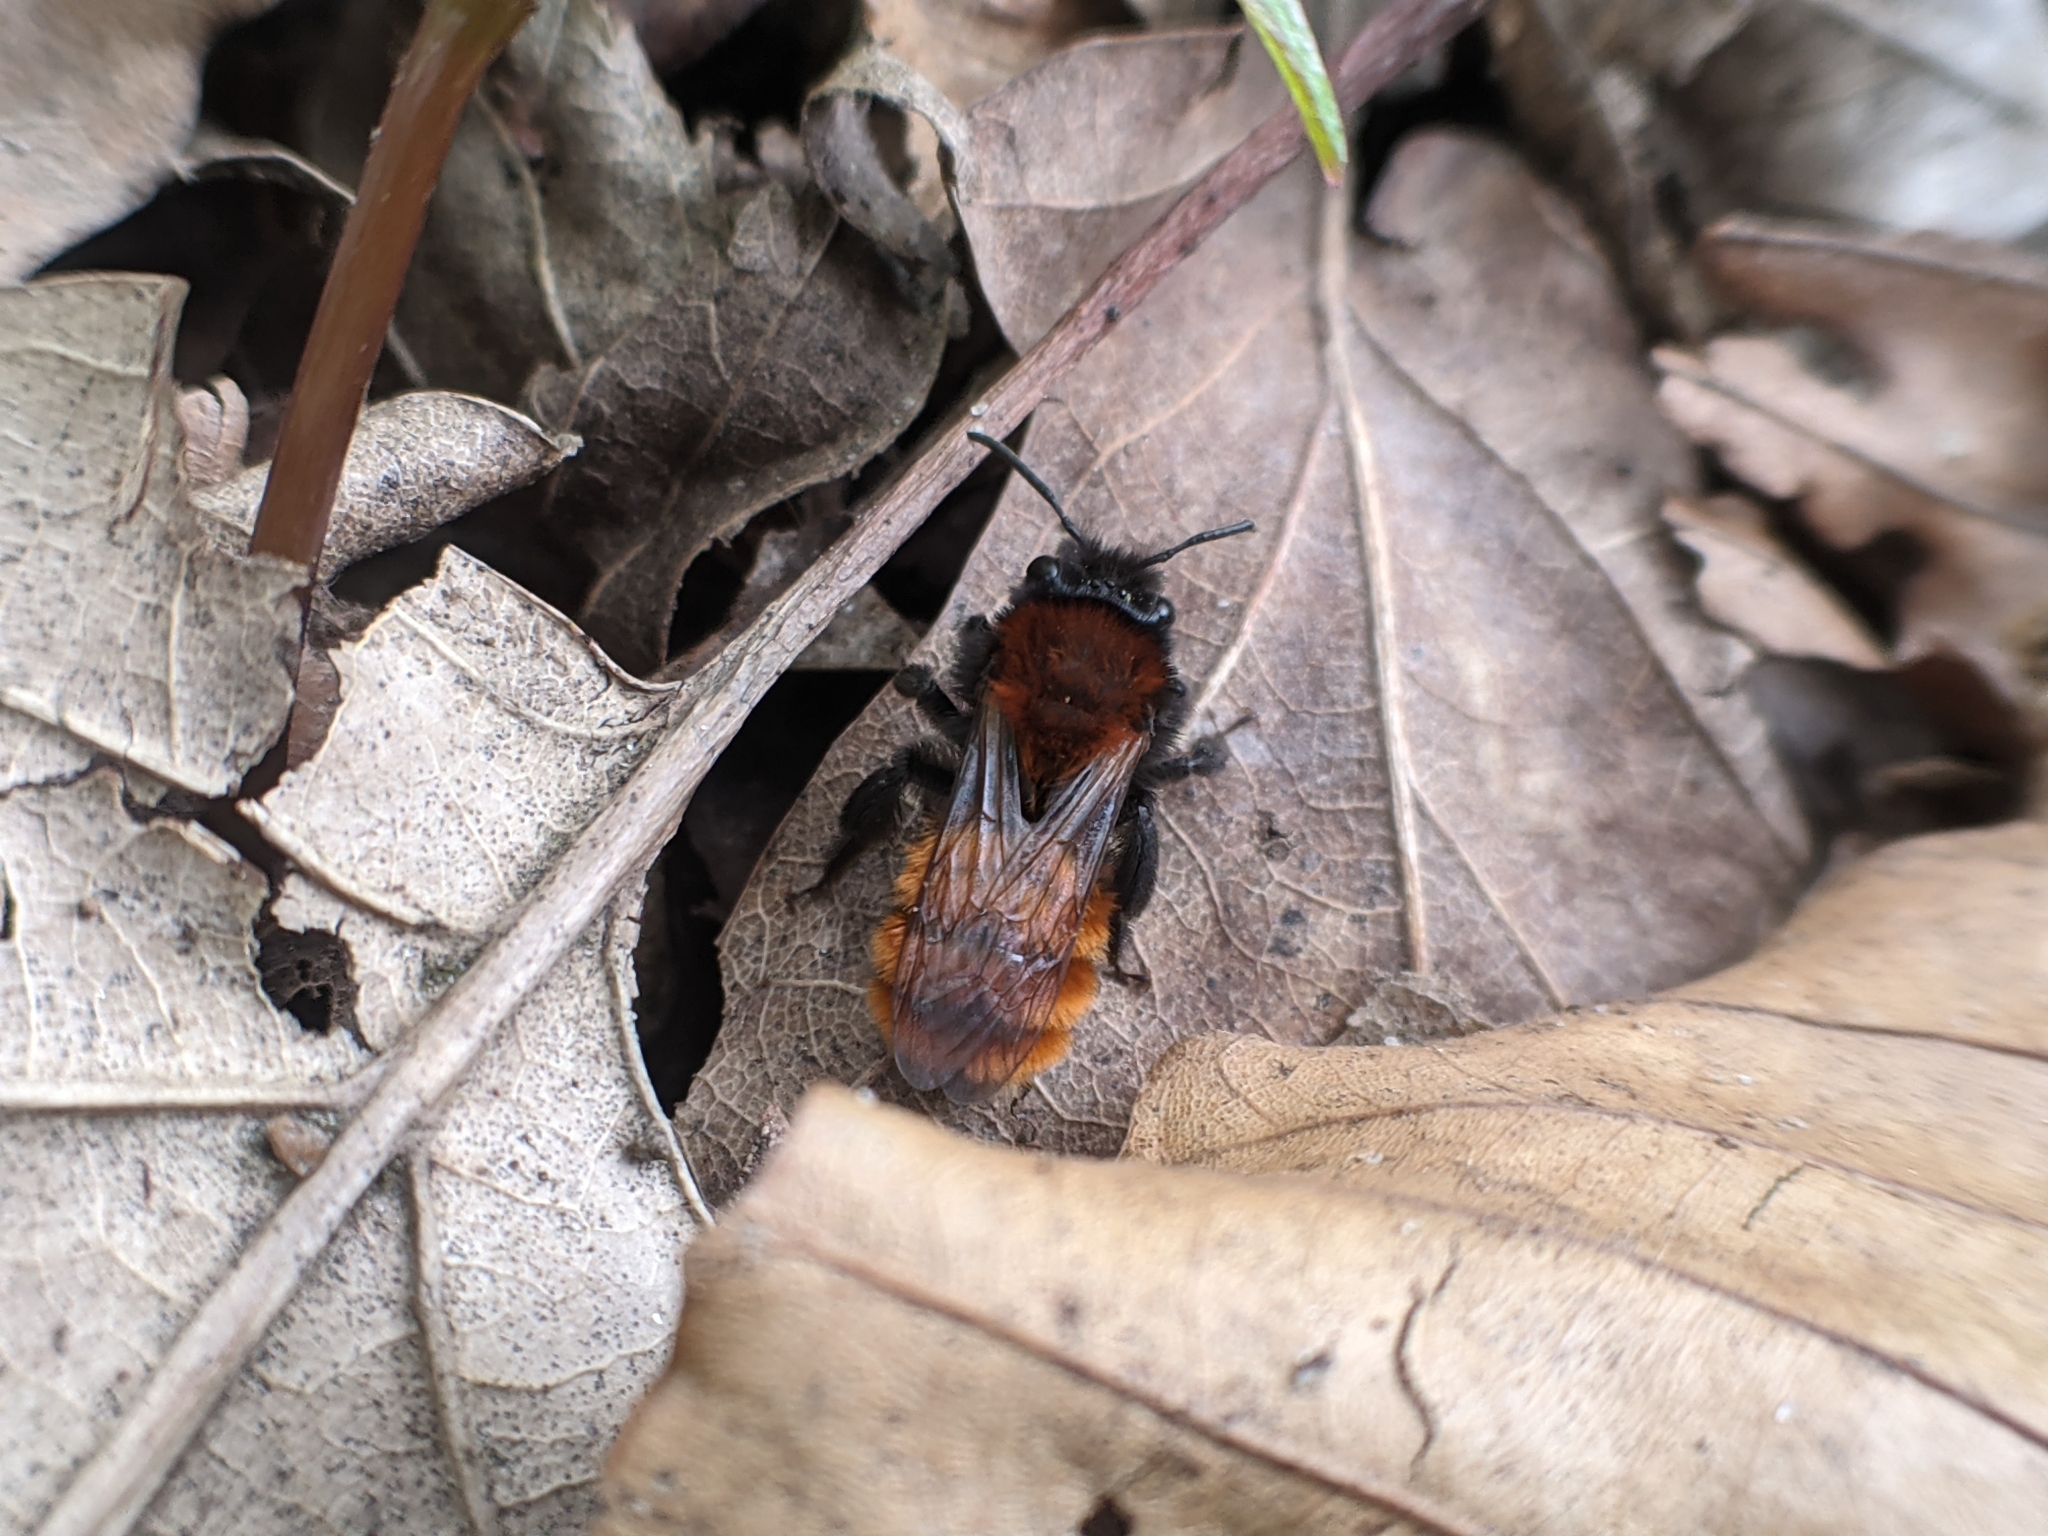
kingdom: Animalia
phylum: Arthropoda
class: Insecta
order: Hymenoptera
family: Andrenidae
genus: Andrena
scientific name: Andrena fulva
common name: Tawny mining bee
